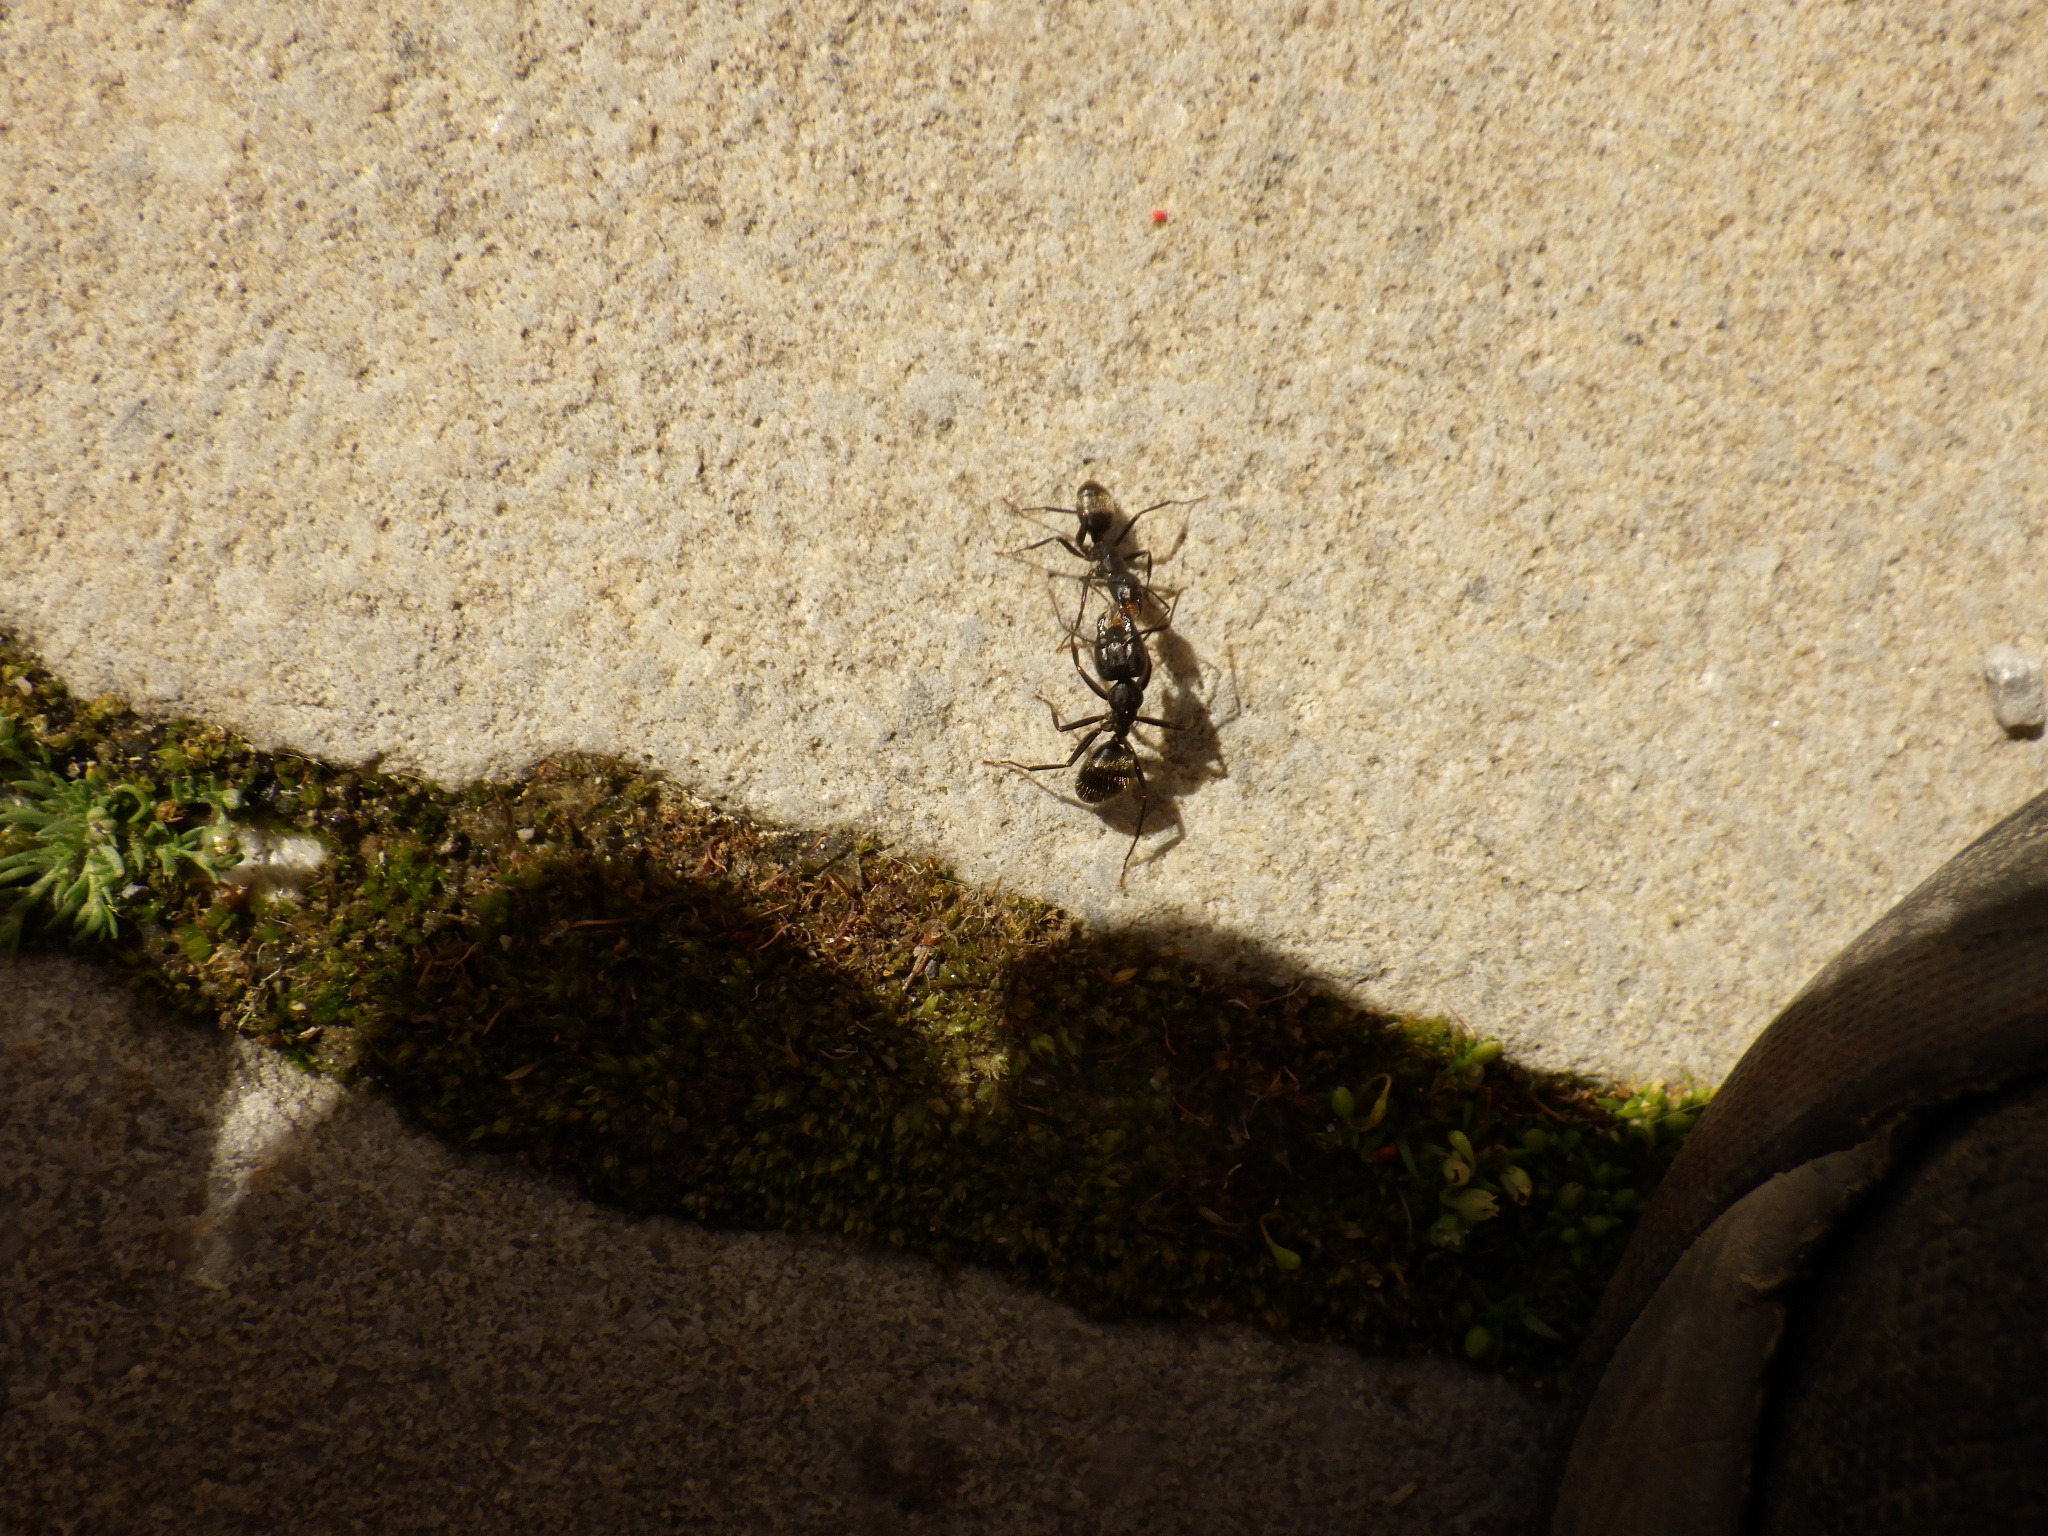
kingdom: Animalia
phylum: Arthropoda
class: Insecta
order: Hymenoptera
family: Formicidae
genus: Camponotus
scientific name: Camponotus pennsylvanicus
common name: Black carpenter ant
